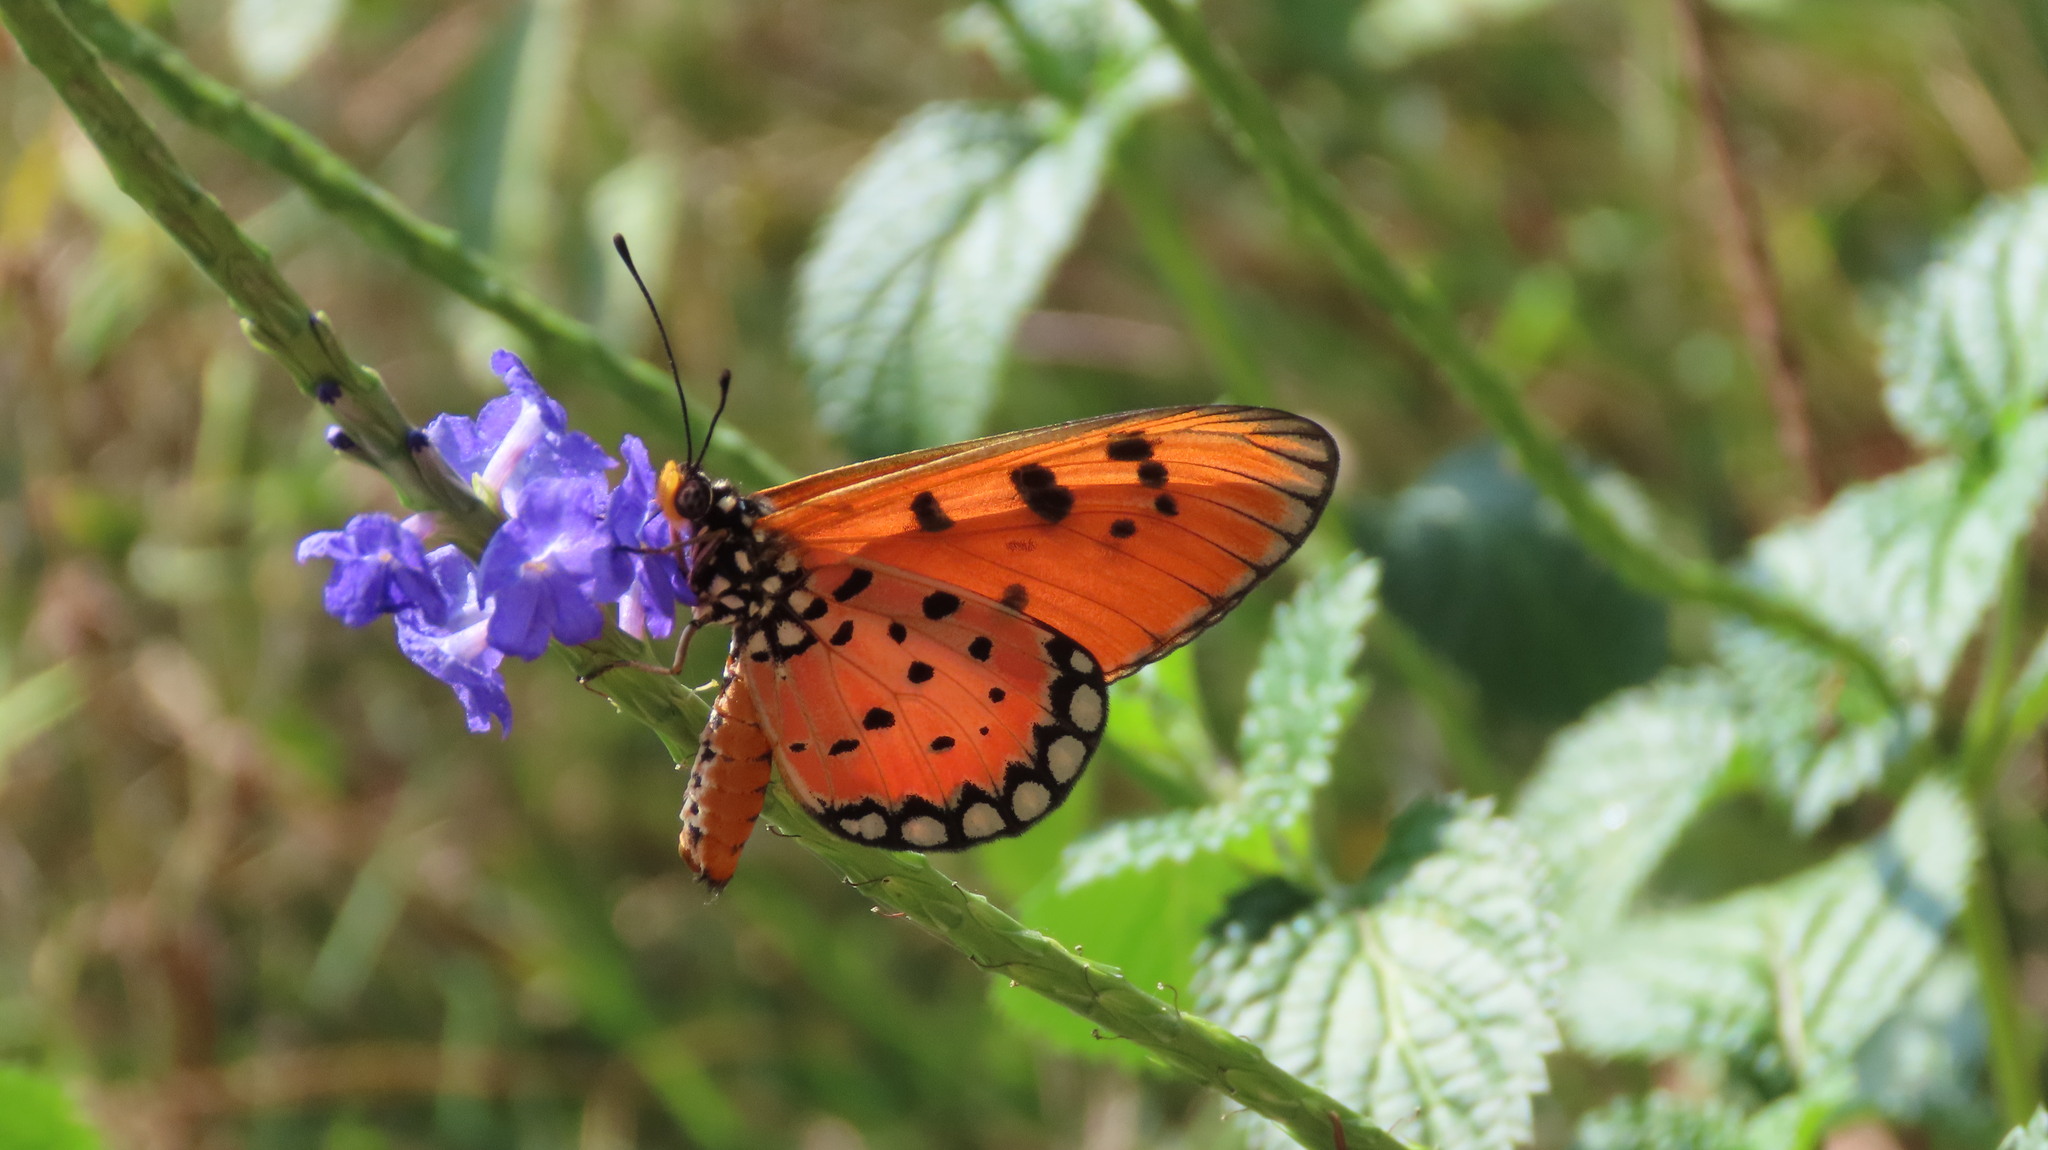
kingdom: Animalia
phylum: Arthropoda
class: Insecta
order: Lepidoptera
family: Nymphalidae
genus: Acraea
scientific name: Acraea terpsicore
